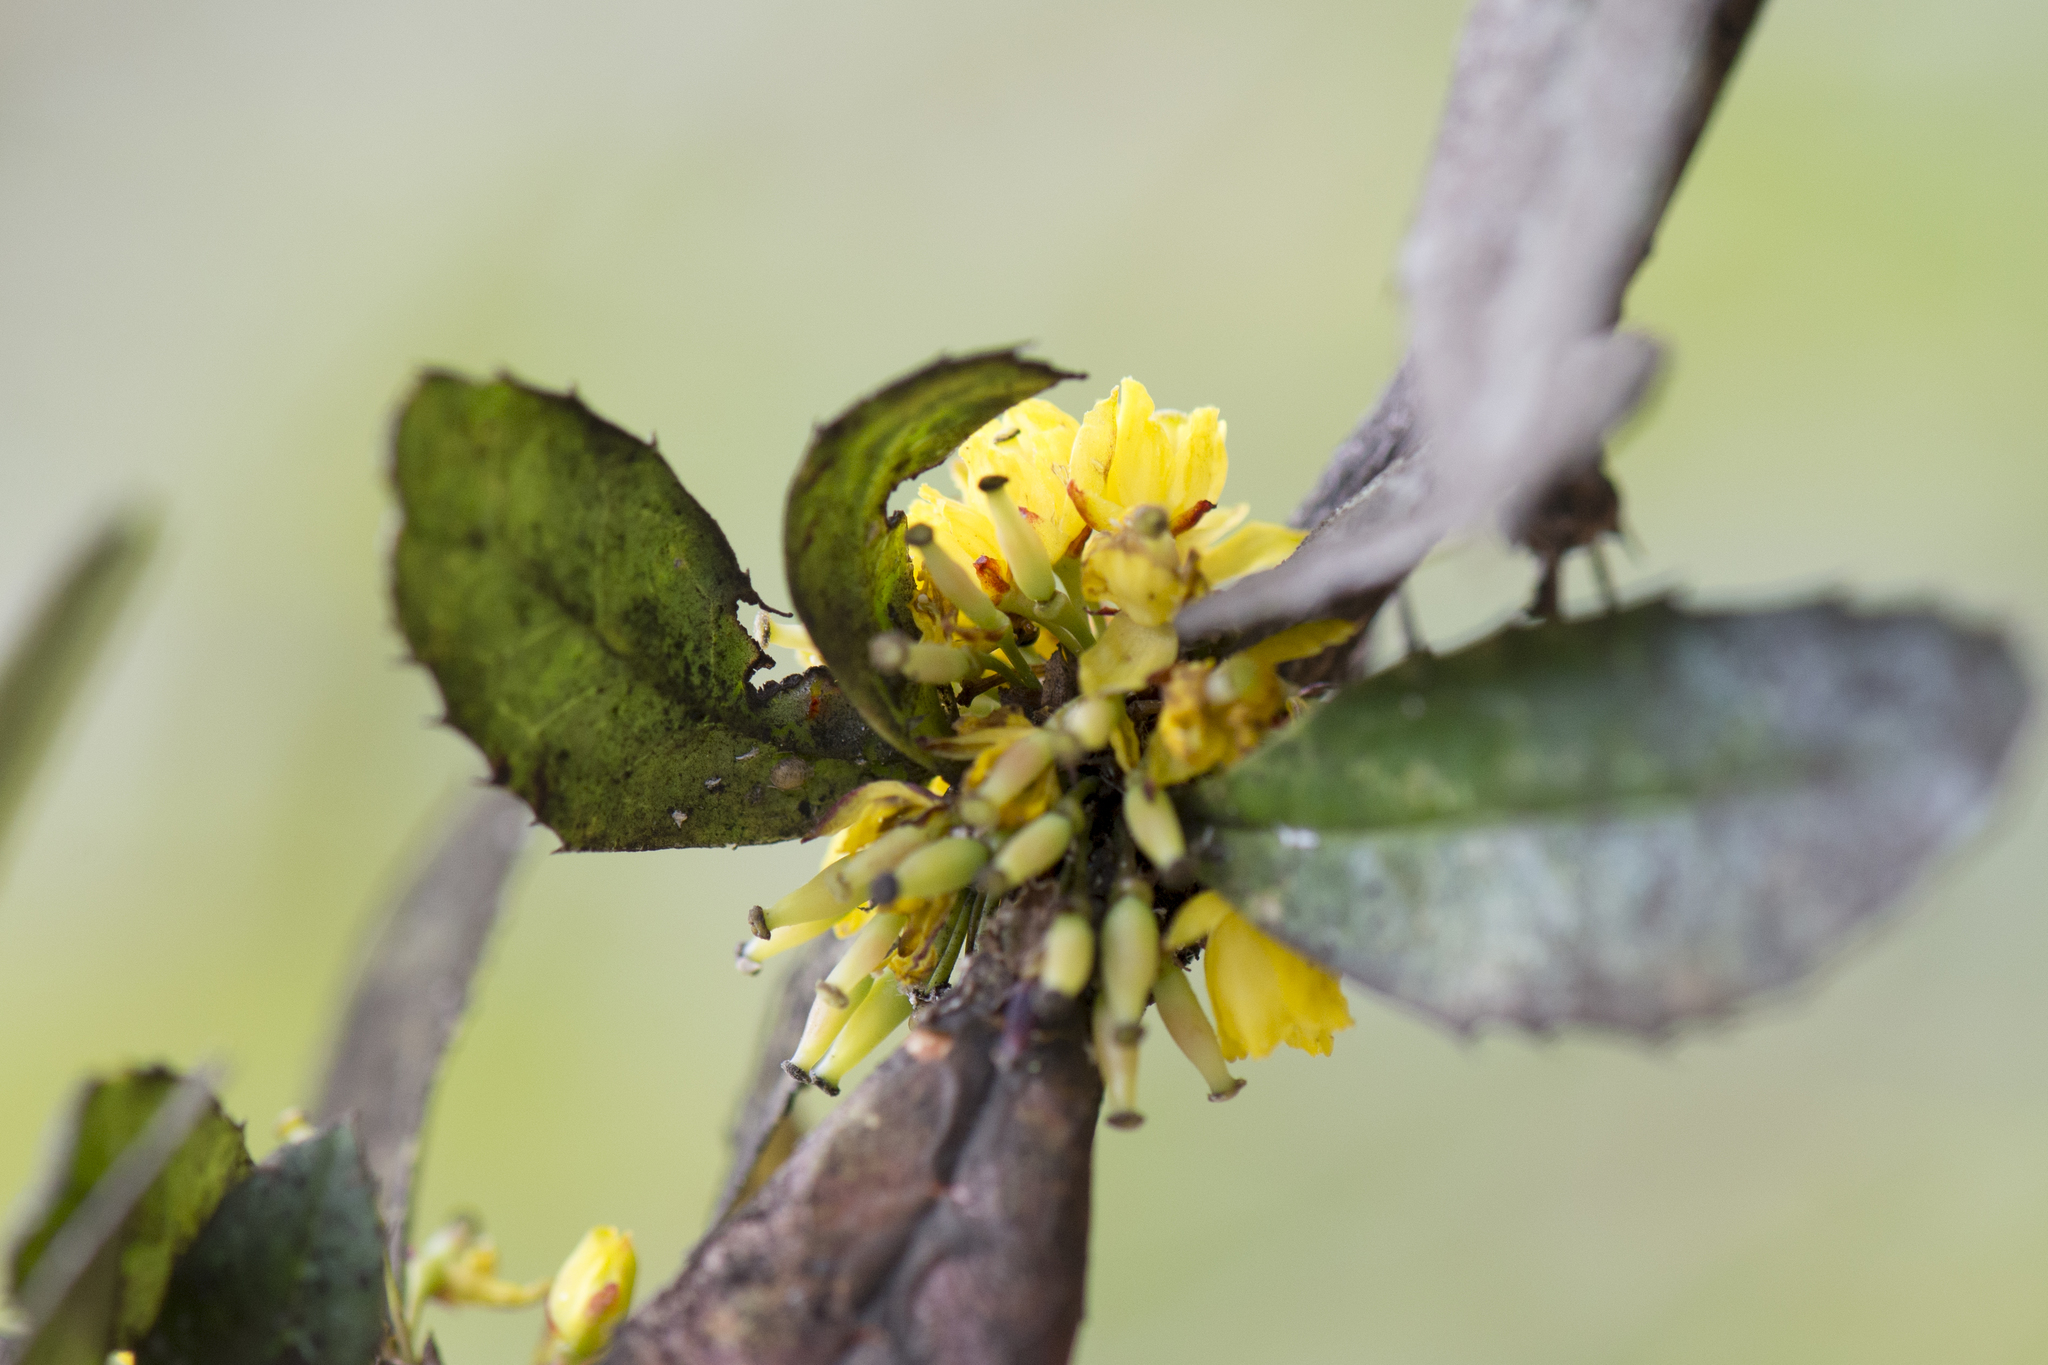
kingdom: Plantae
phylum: Tracheophyta
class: Magnoliopsida
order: Ranunculales
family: Berberidaceae
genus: Berberis
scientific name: Berberis kawakamii
